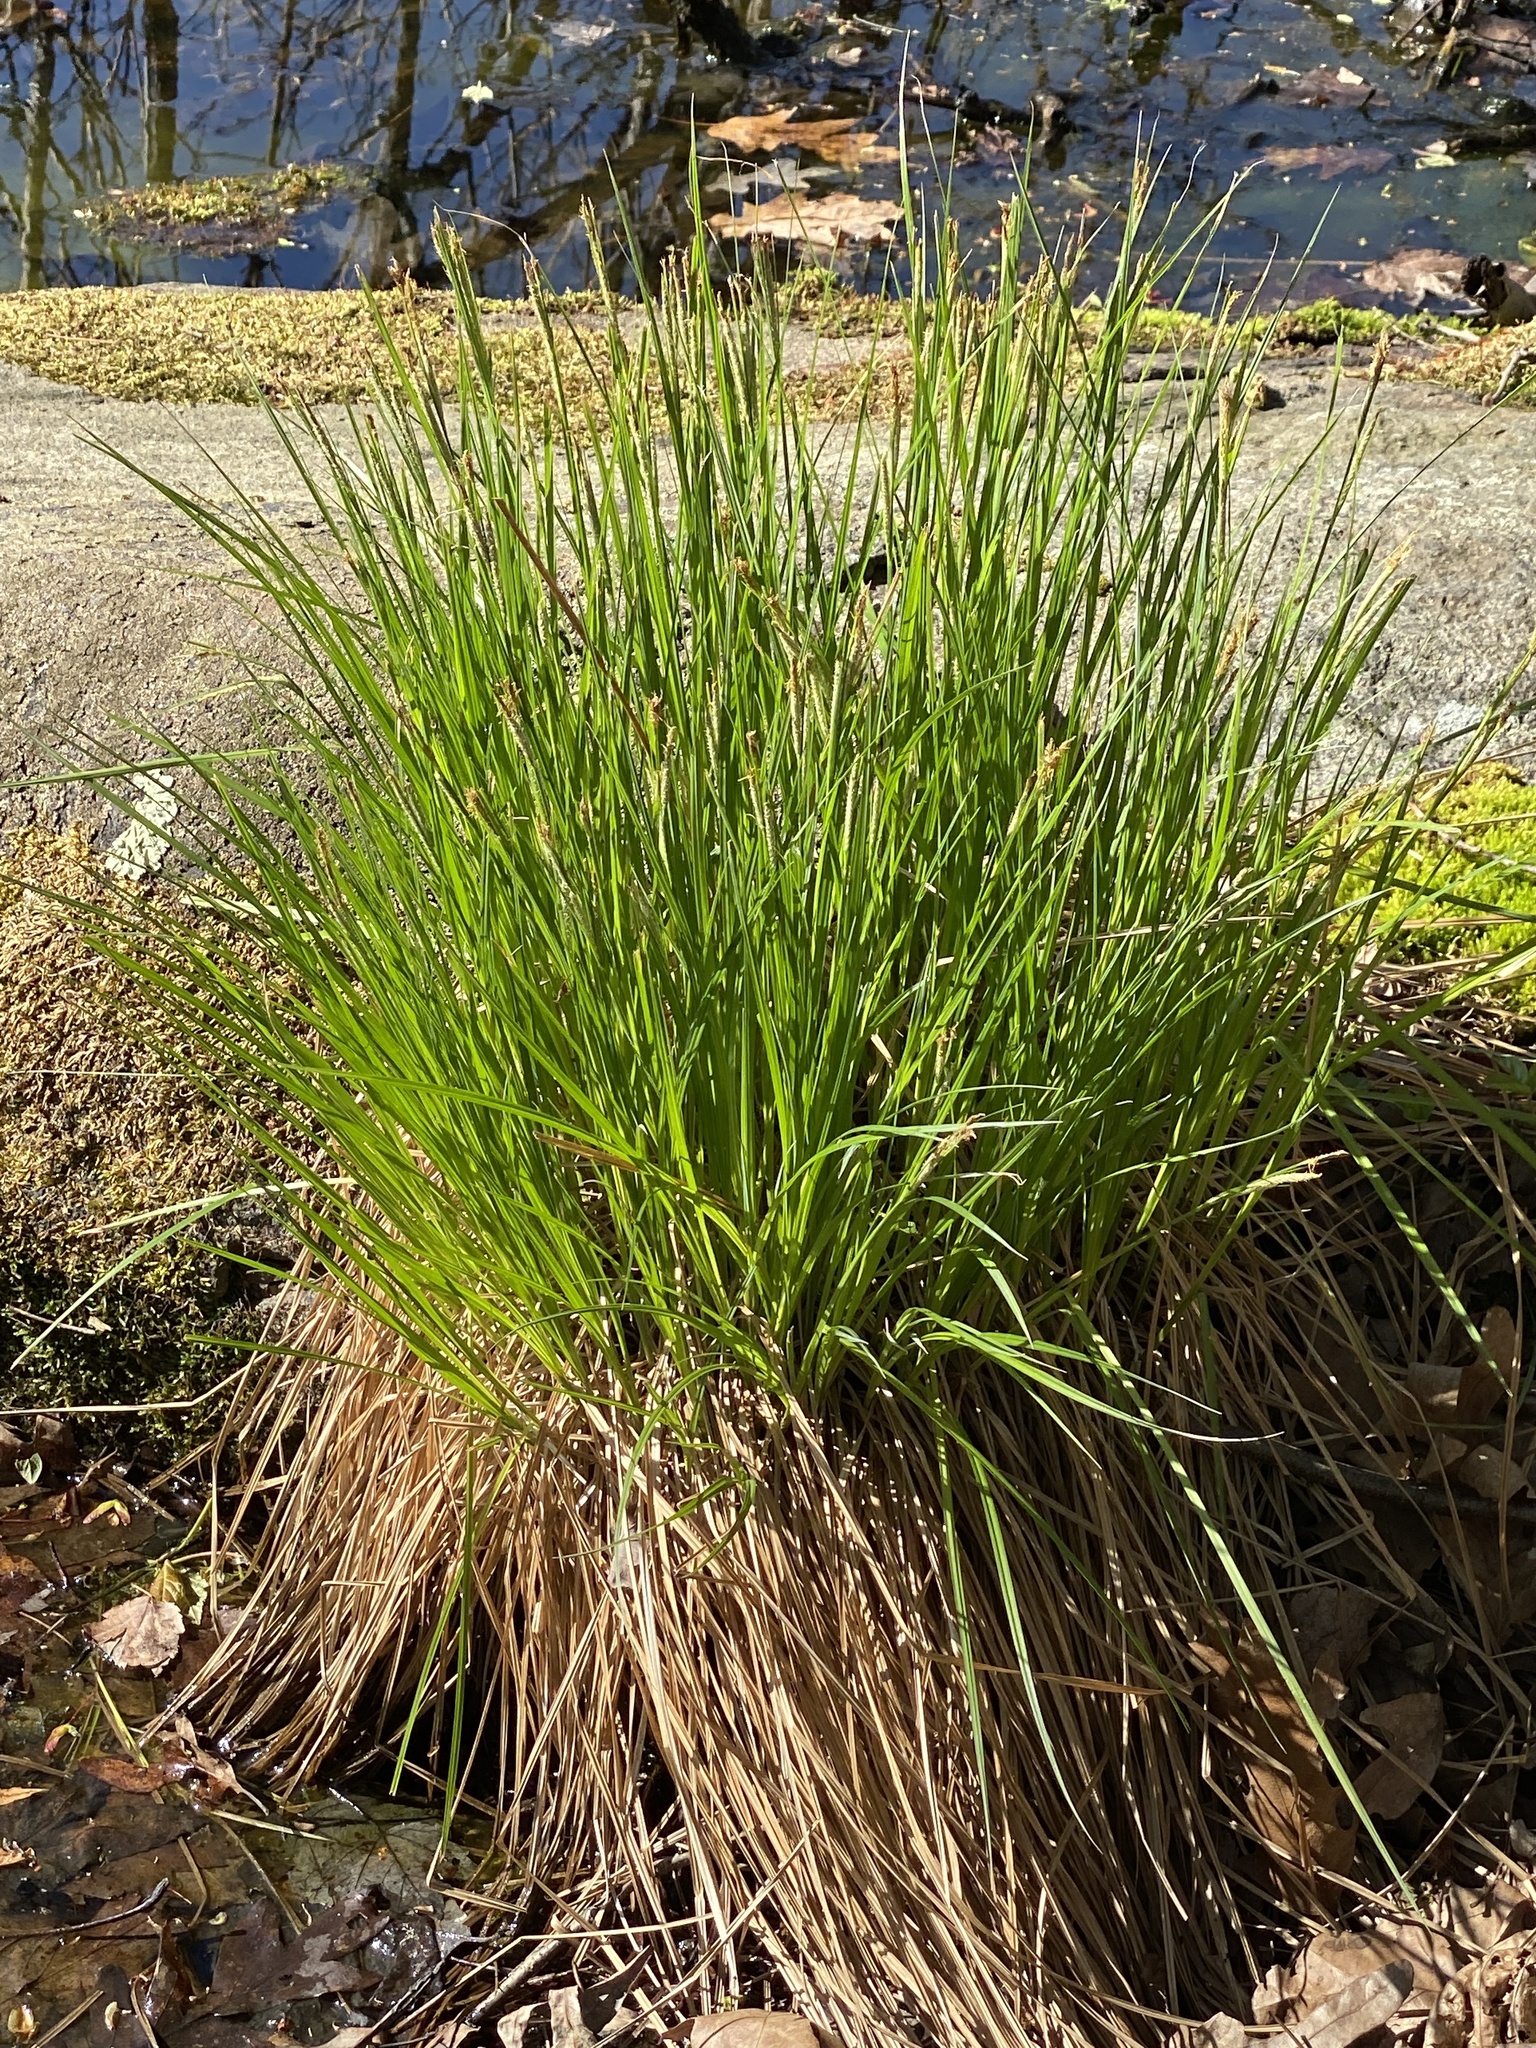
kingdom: Plantae
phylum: Tracheophyta
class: Liliopsida
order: Poales
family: Cyperaceae
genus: Carex
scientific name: Carex stricta
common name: Hummock sedge
